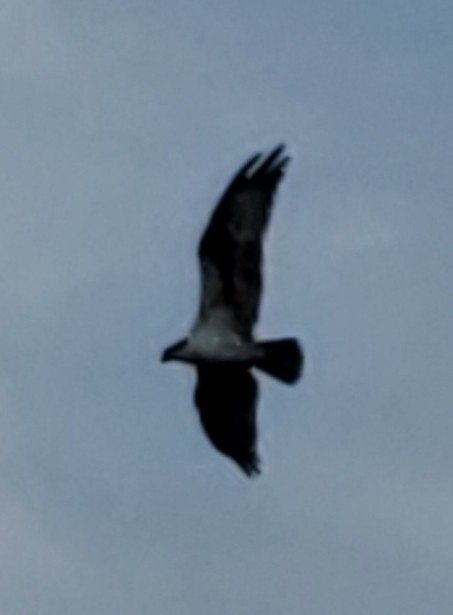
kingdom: Animalia
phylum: Chordata
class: Aves
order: Accipitriformes
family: Pandionidae
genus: Pandion
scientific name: Pandion haliaetus
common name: Osprey
